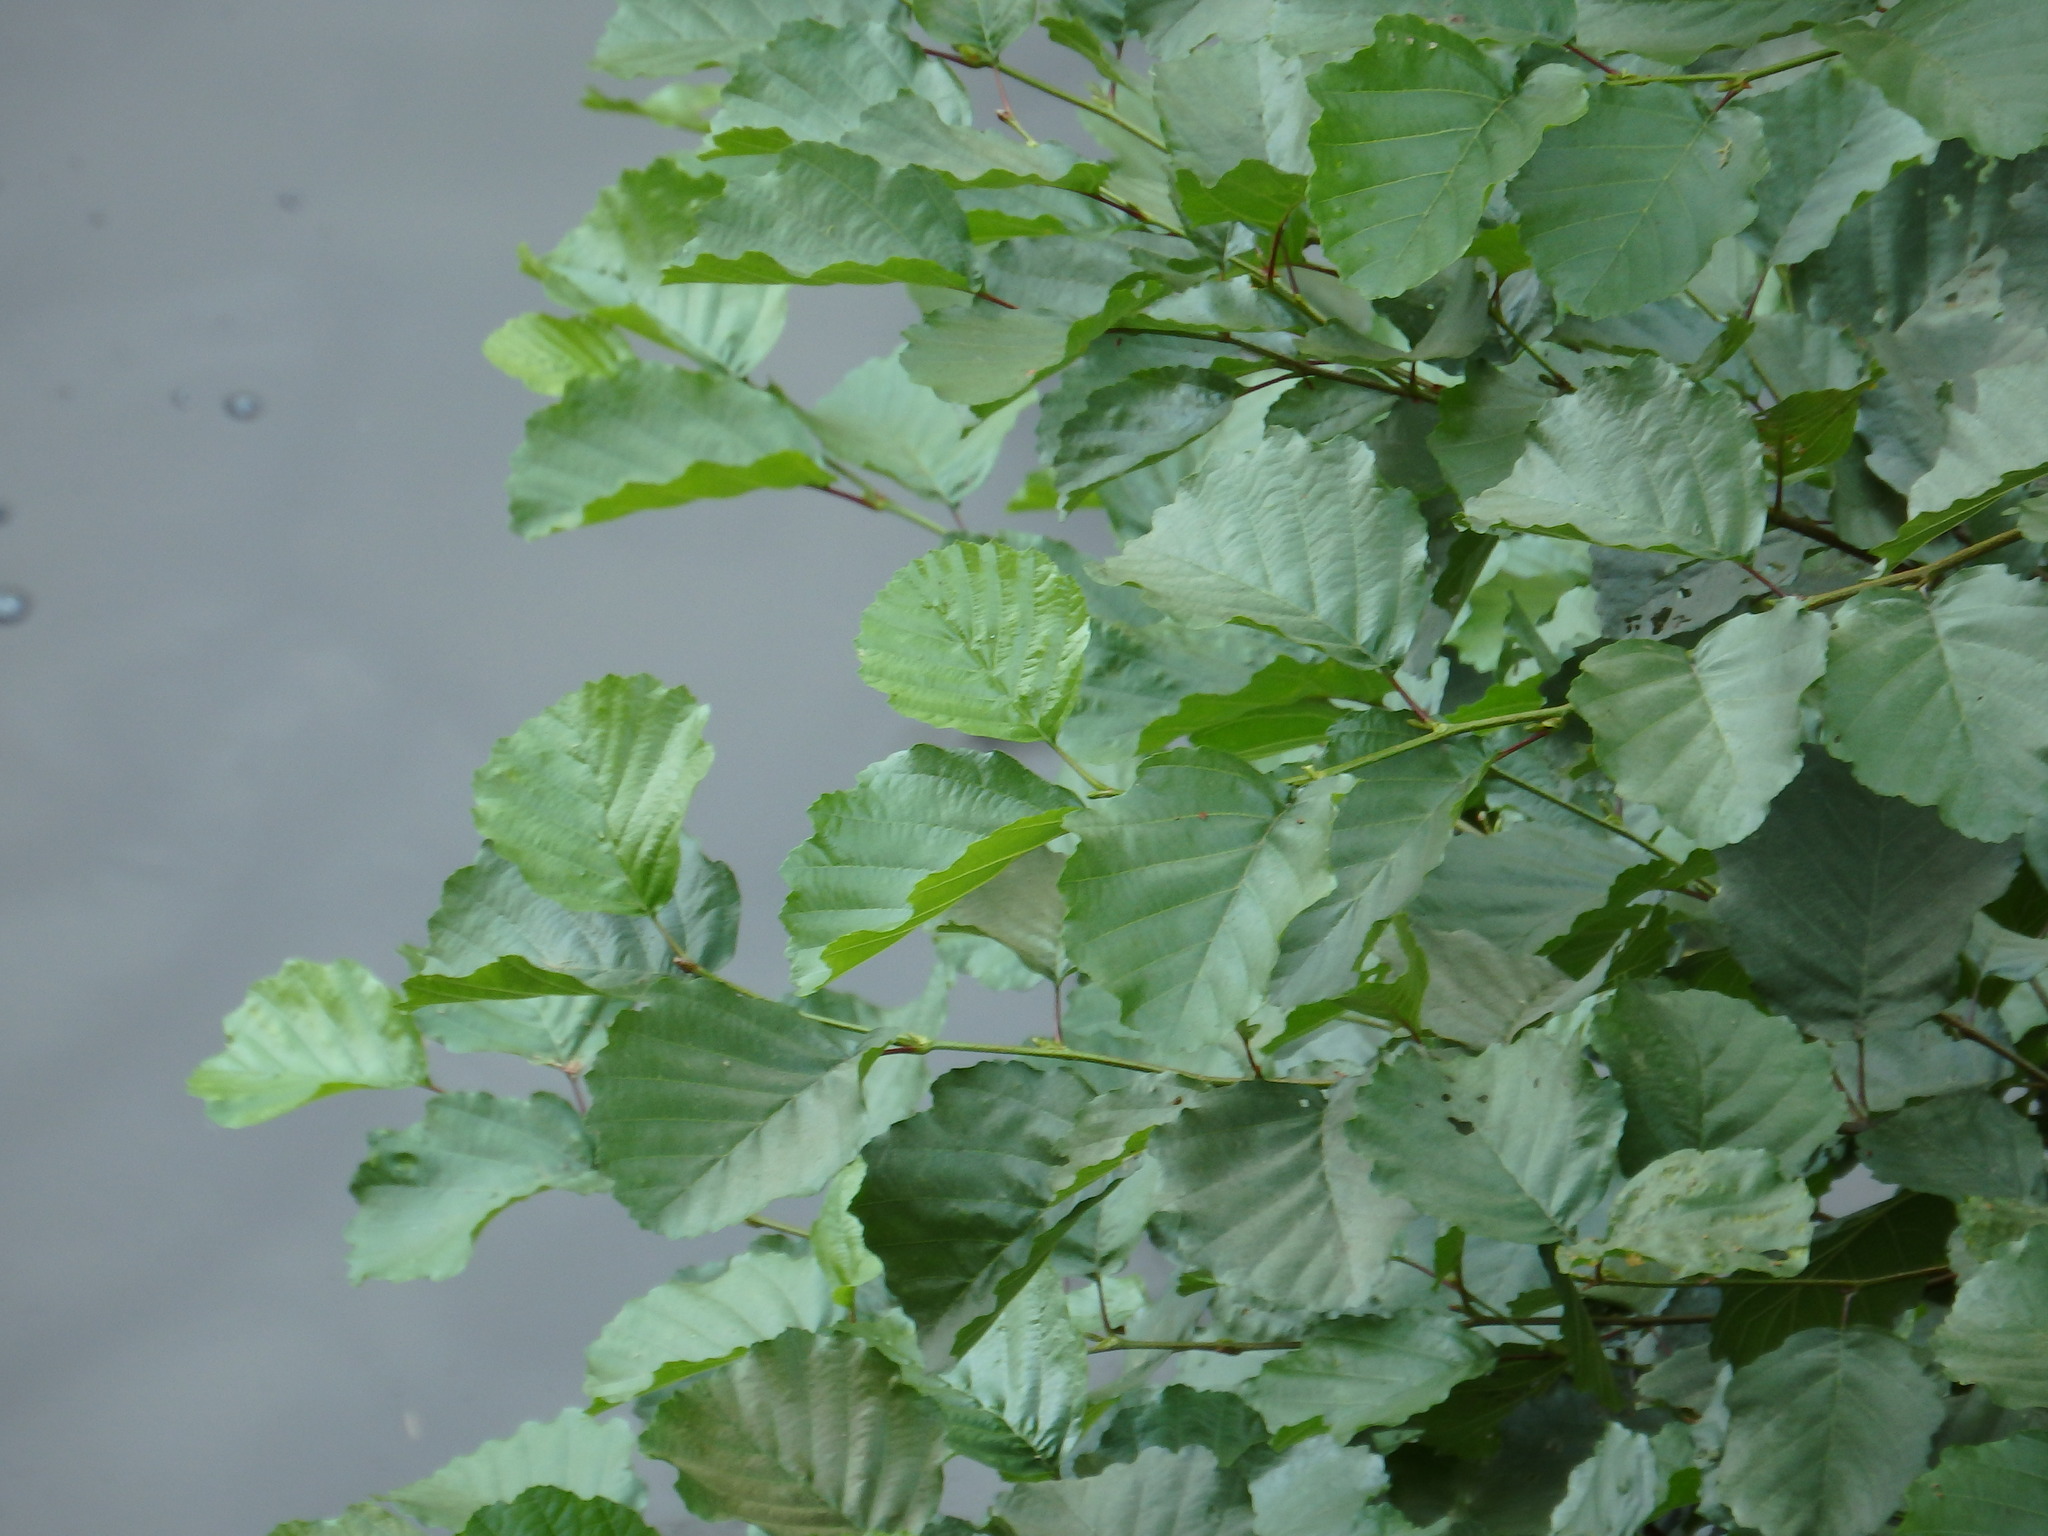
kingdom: Plantae
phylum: Tracheophyta
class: Magnoliopsida
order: Fagales
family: Betulaceae
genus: Alnus
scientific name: Alnus lusitanica
